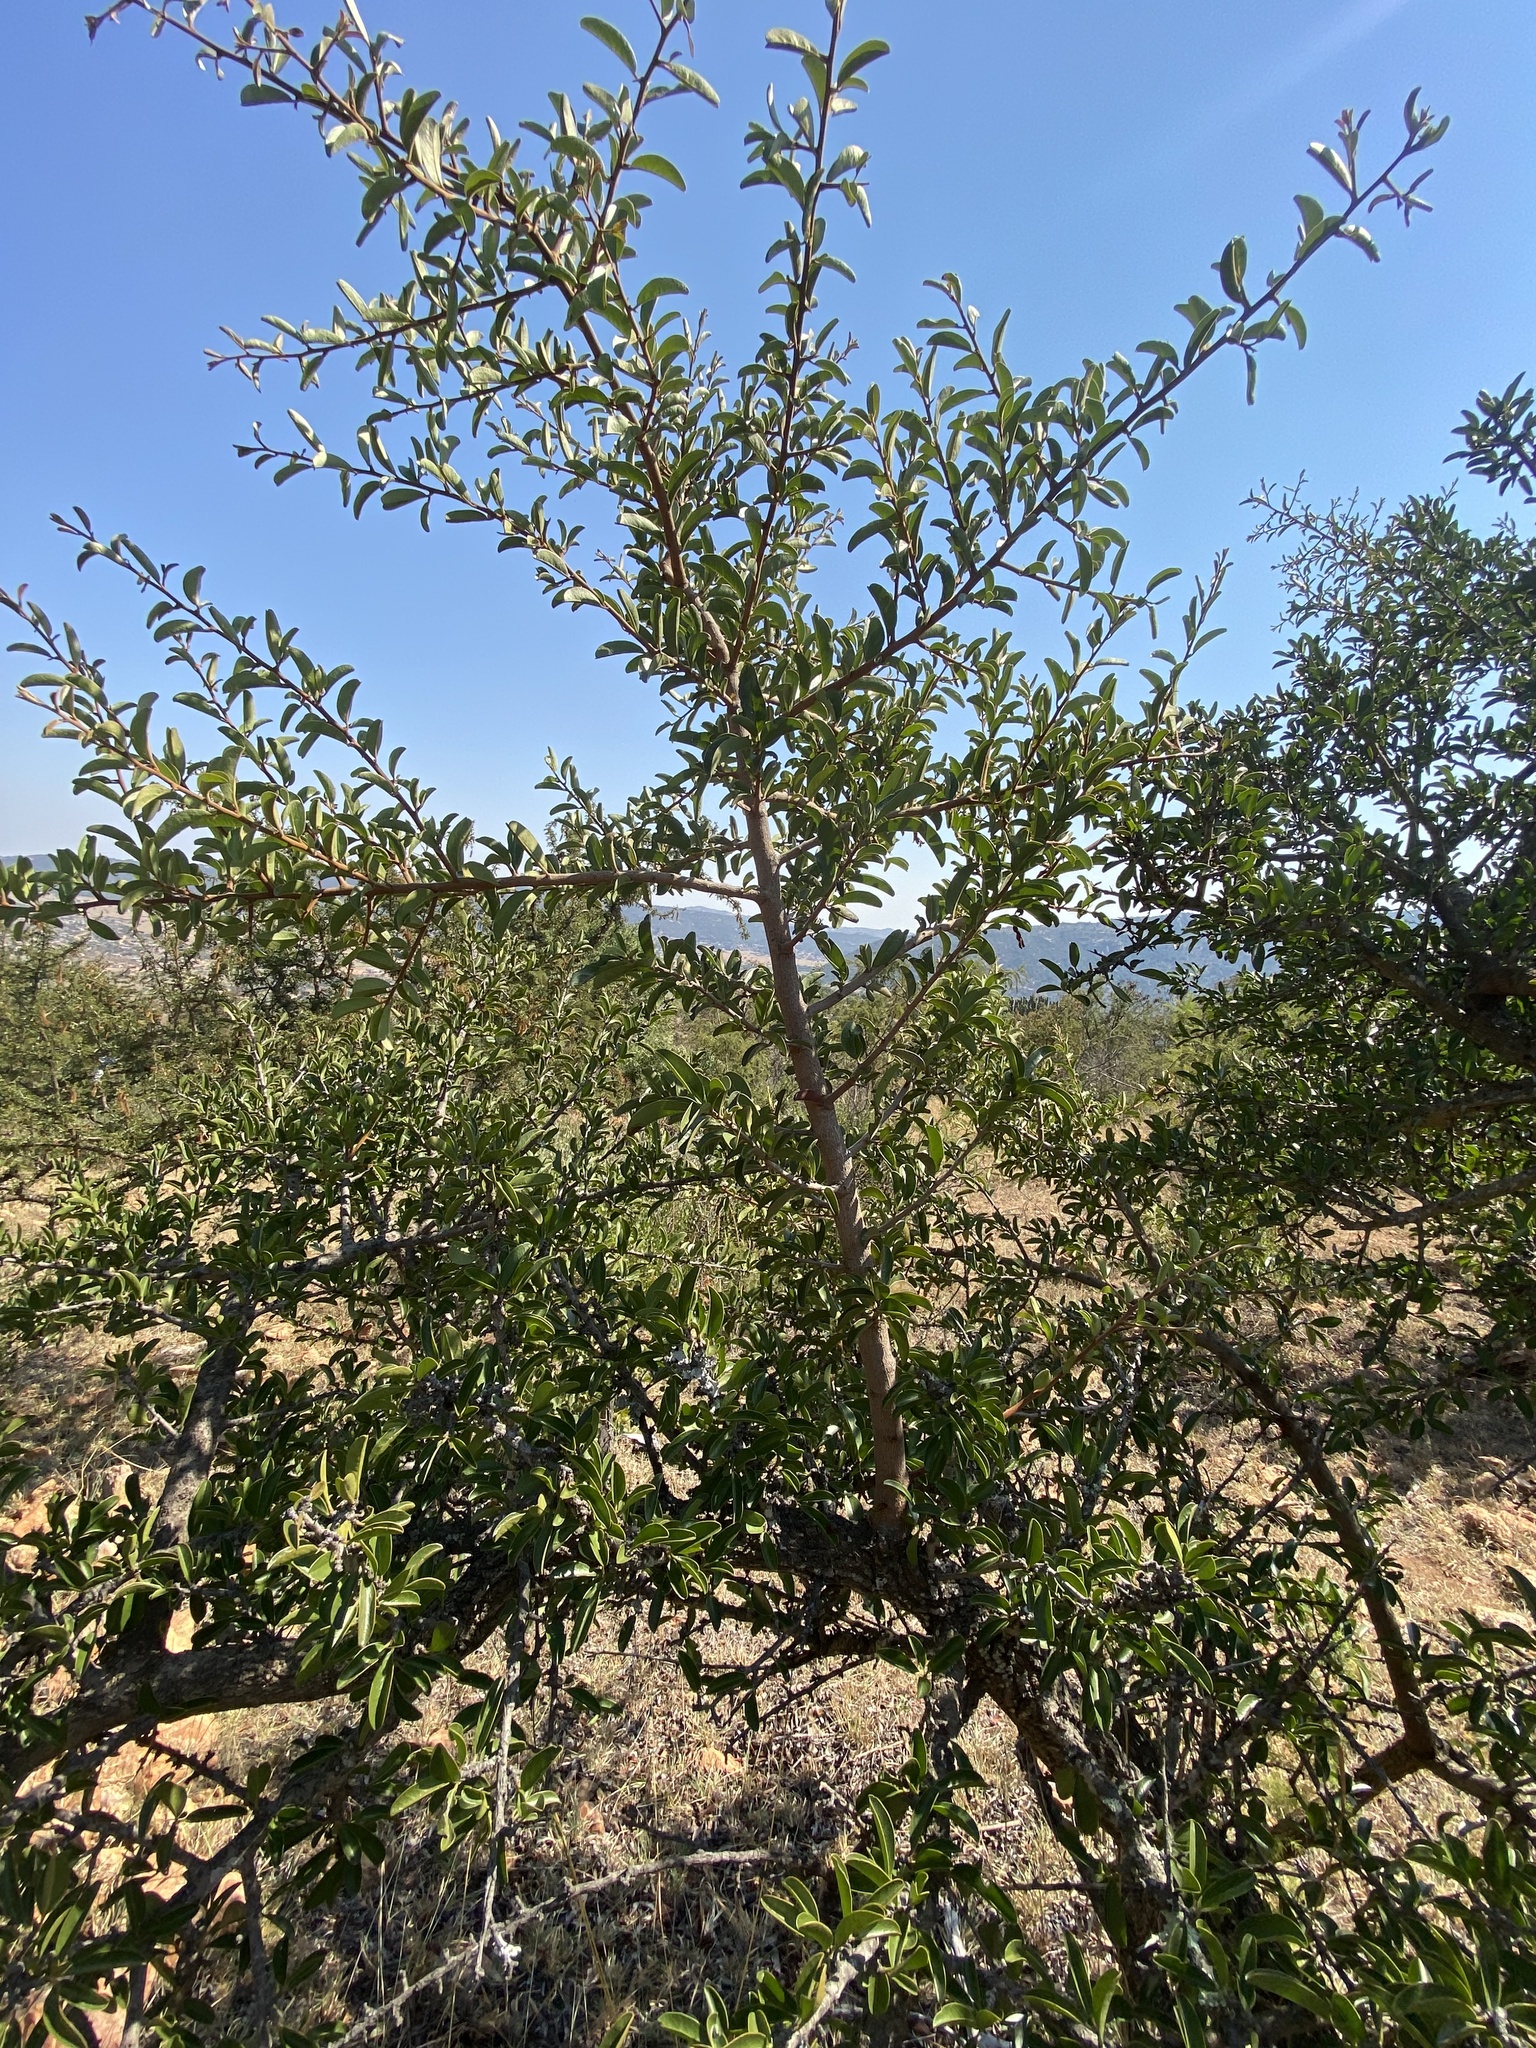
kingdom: Plantae
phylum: Tracheophyta
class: Magnoliopsida
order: Santalales
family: Ximeniaceae
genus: Ximenia
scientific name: Ximenia caffra
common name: Large sourplum
